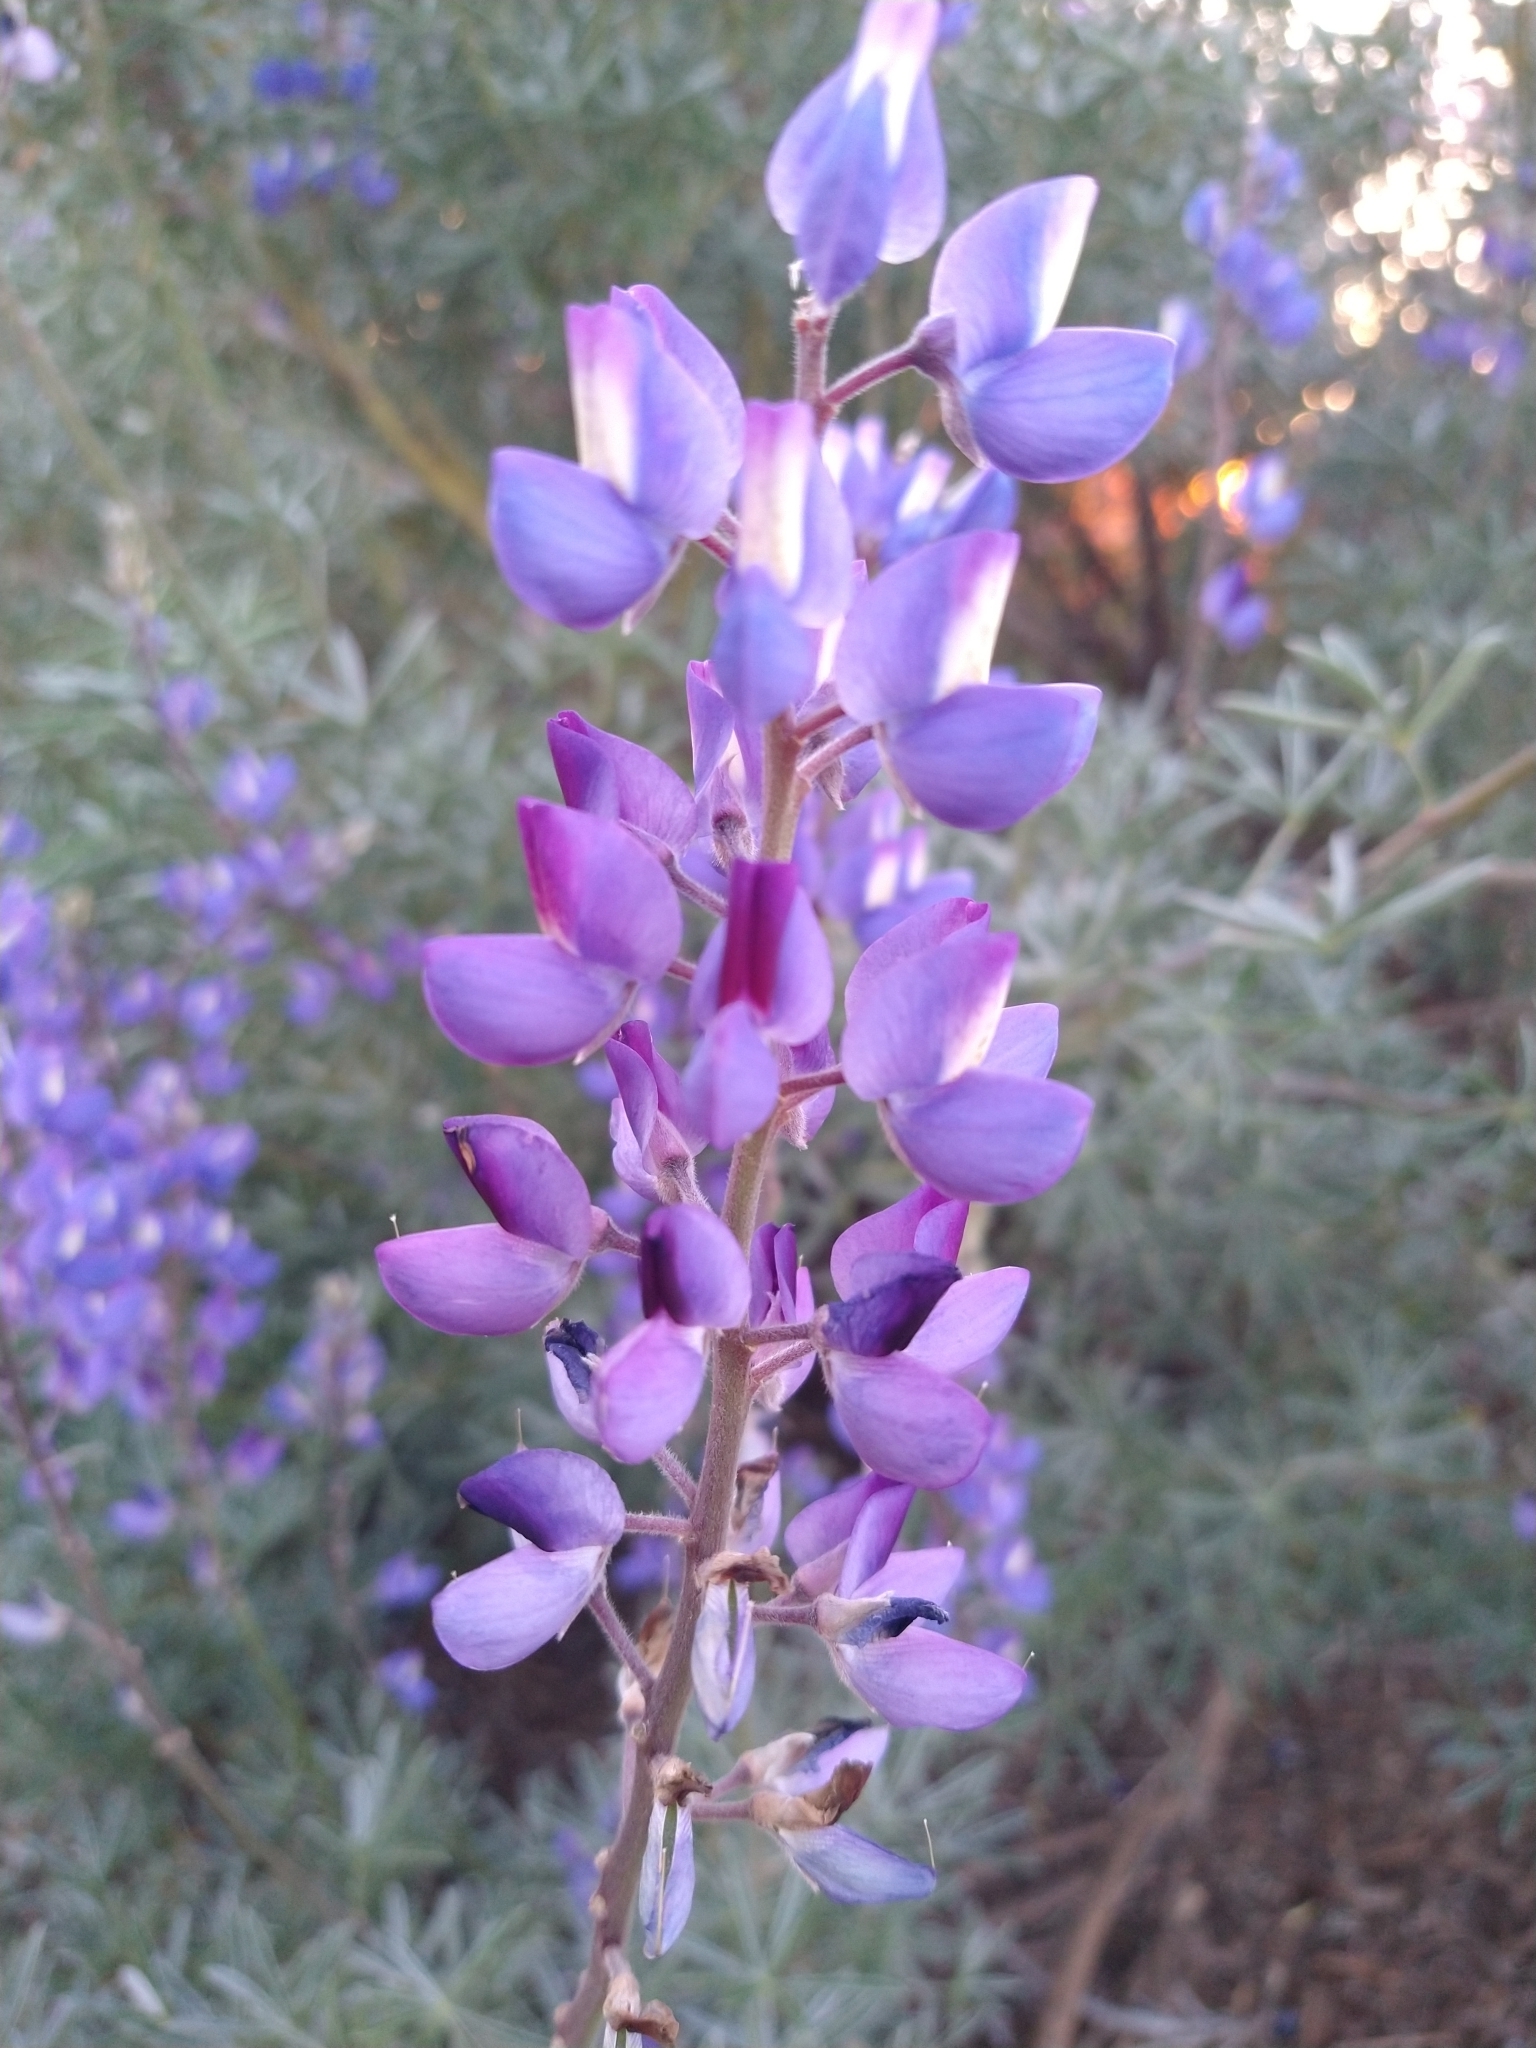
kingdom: Plantae
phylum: Tracheophyta
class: Magnoliopsida
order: Fabales
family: Fabaceae
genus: Lupinus
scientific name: Lupinus albifrons
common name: Foothill lupine
